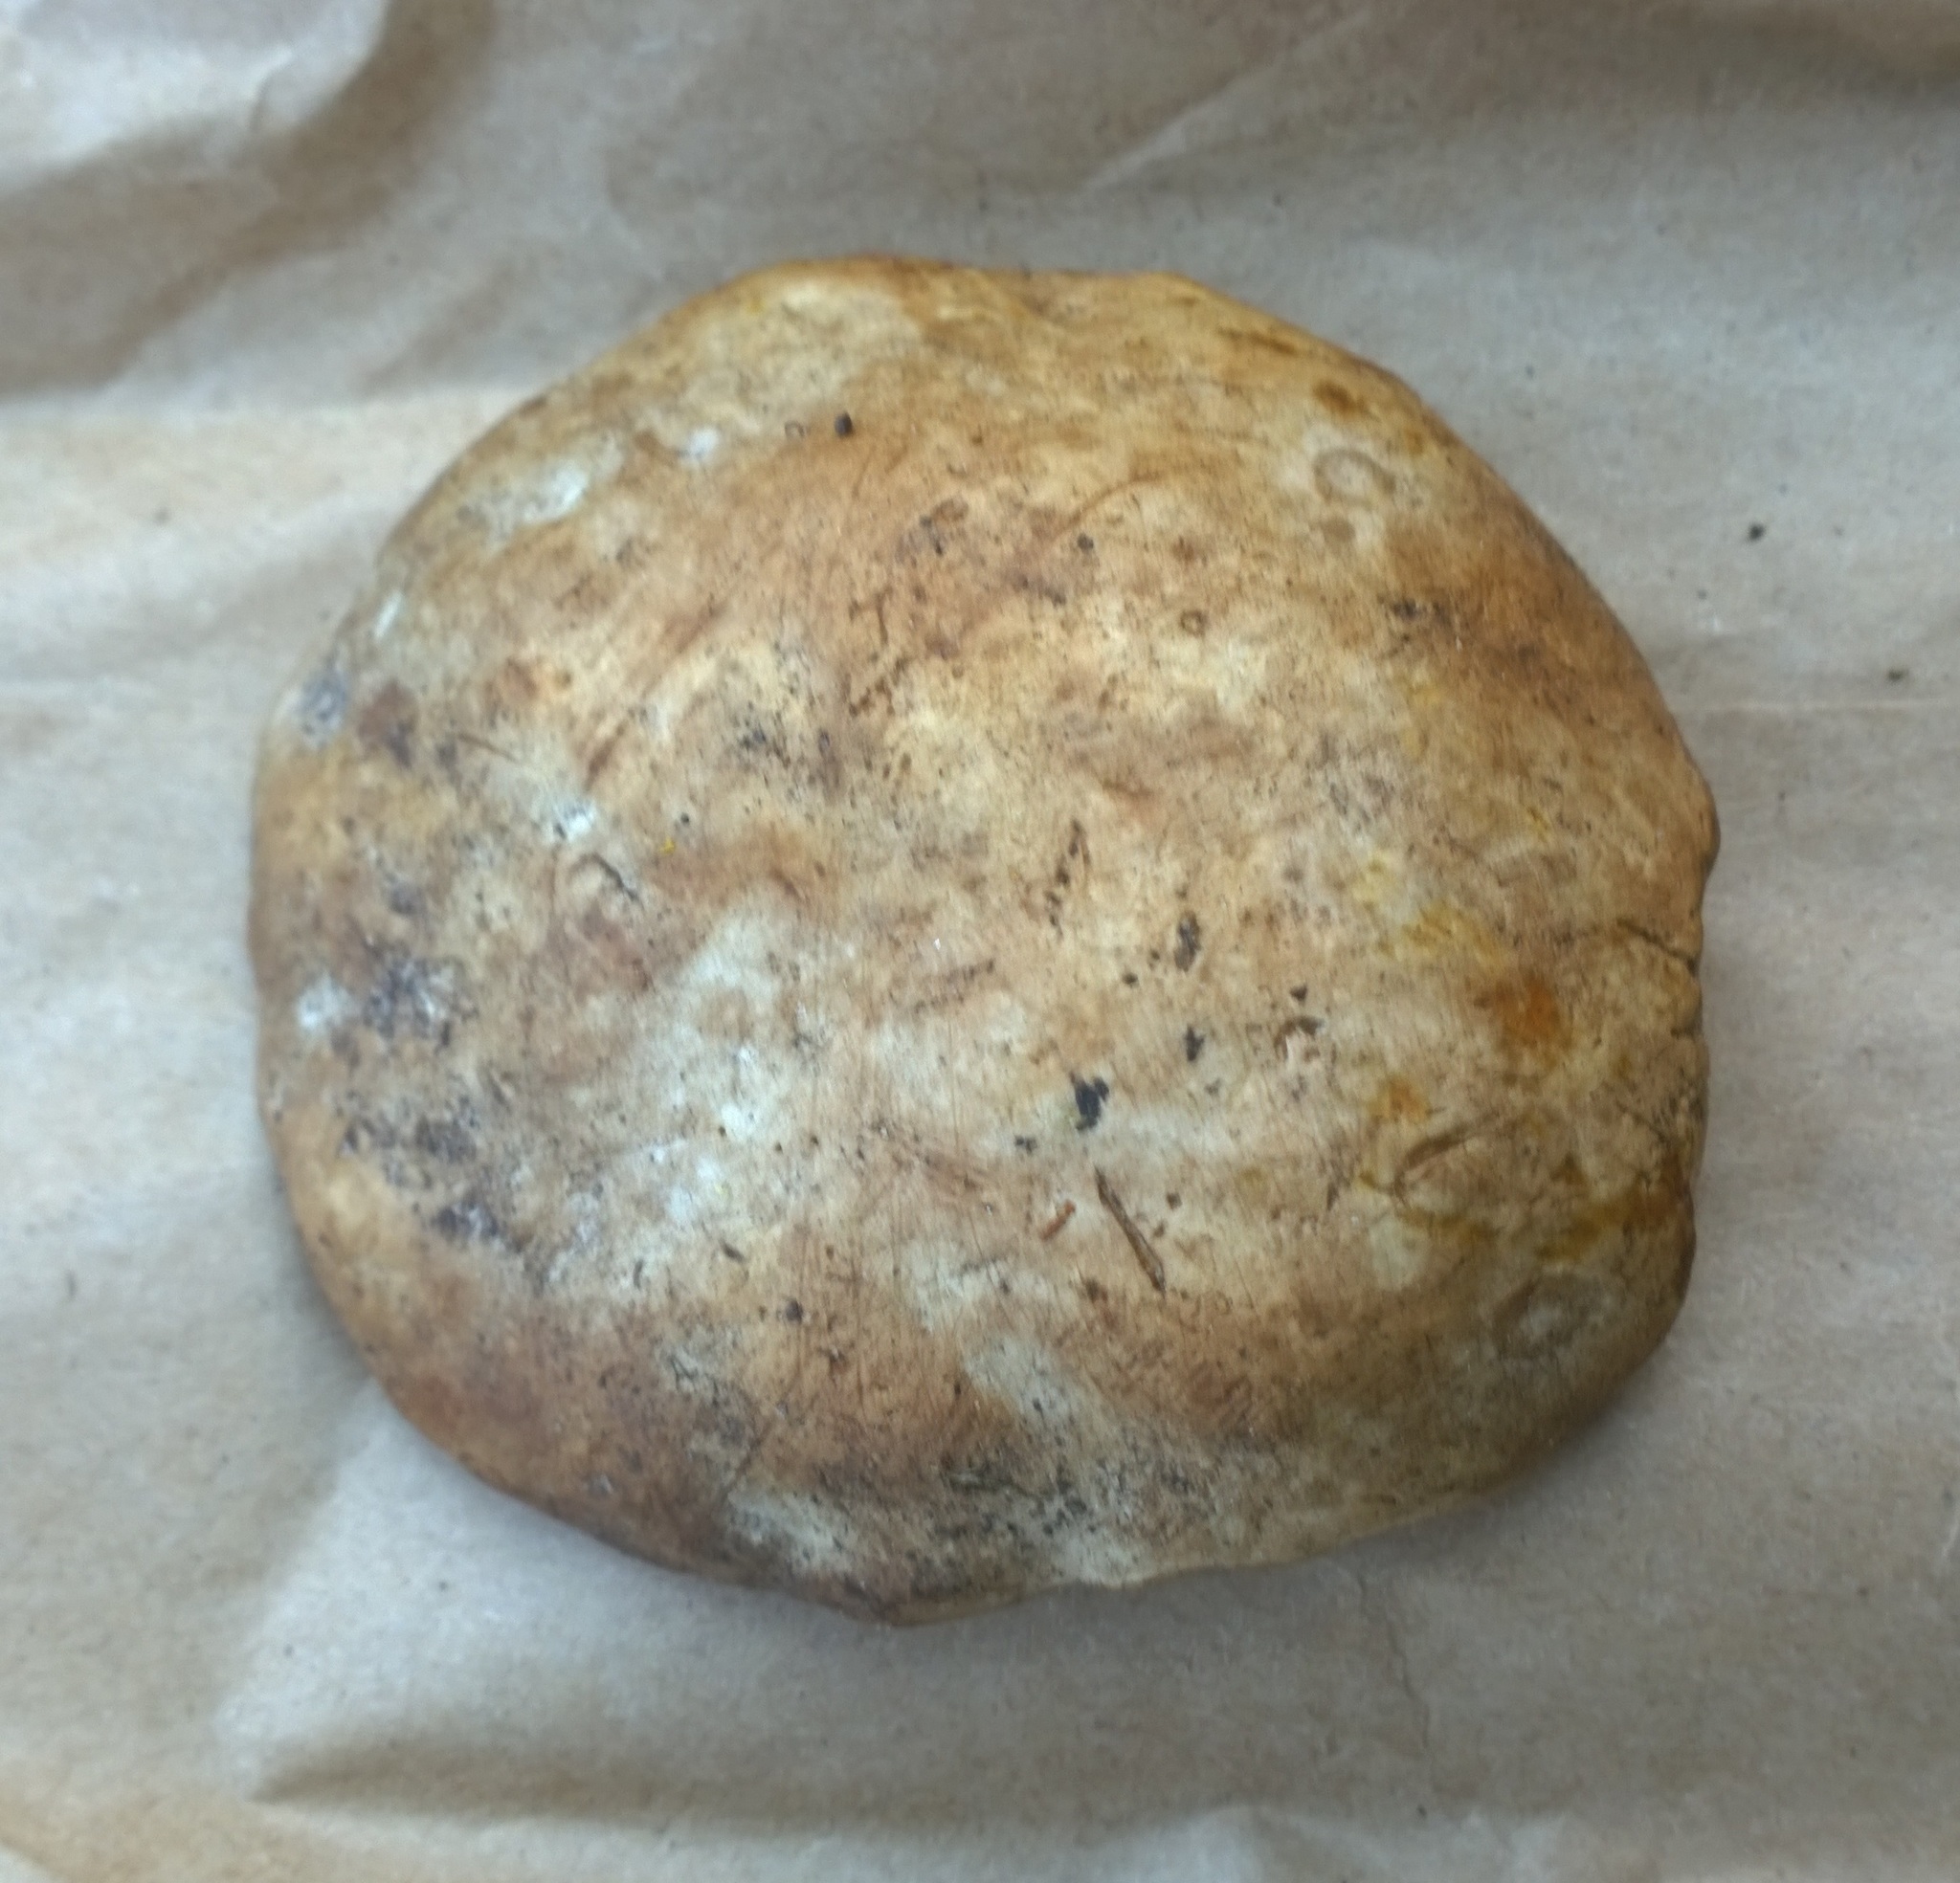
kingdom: Fungi
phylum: Basidiomycota
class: Agaricomycetes
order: Boletales
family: Boletaceae
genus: Boletus
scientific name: Boletus barrowsii
